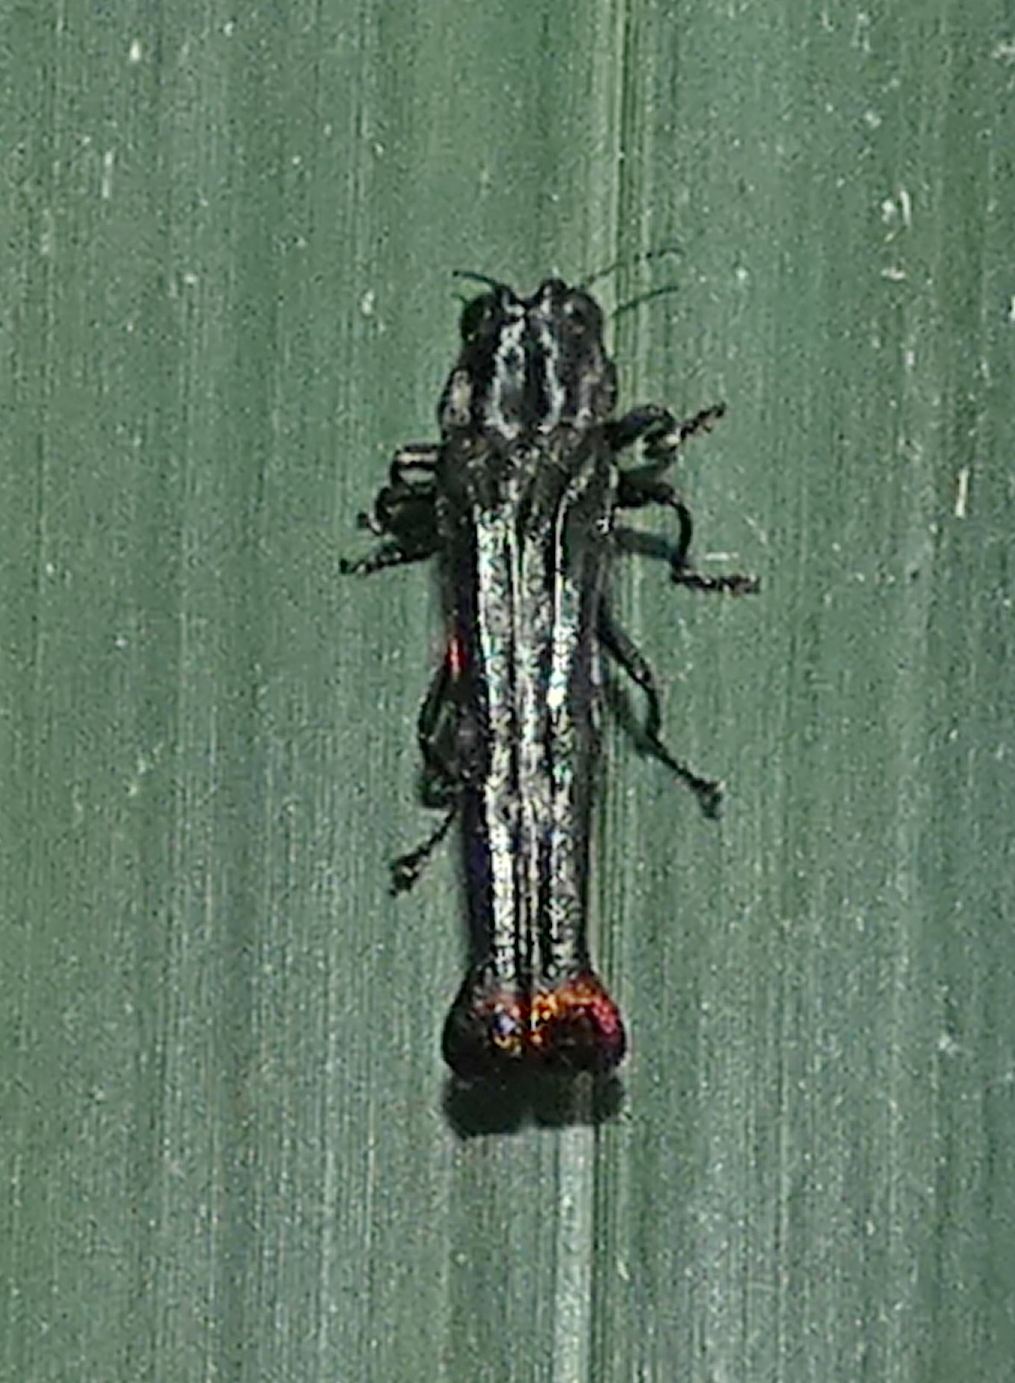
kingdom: Animalia
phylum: Arthropoda
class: Insecta
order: Coleoptera
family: Buprestidae
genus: Agrilus
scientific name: Agrilus pyrosurus
